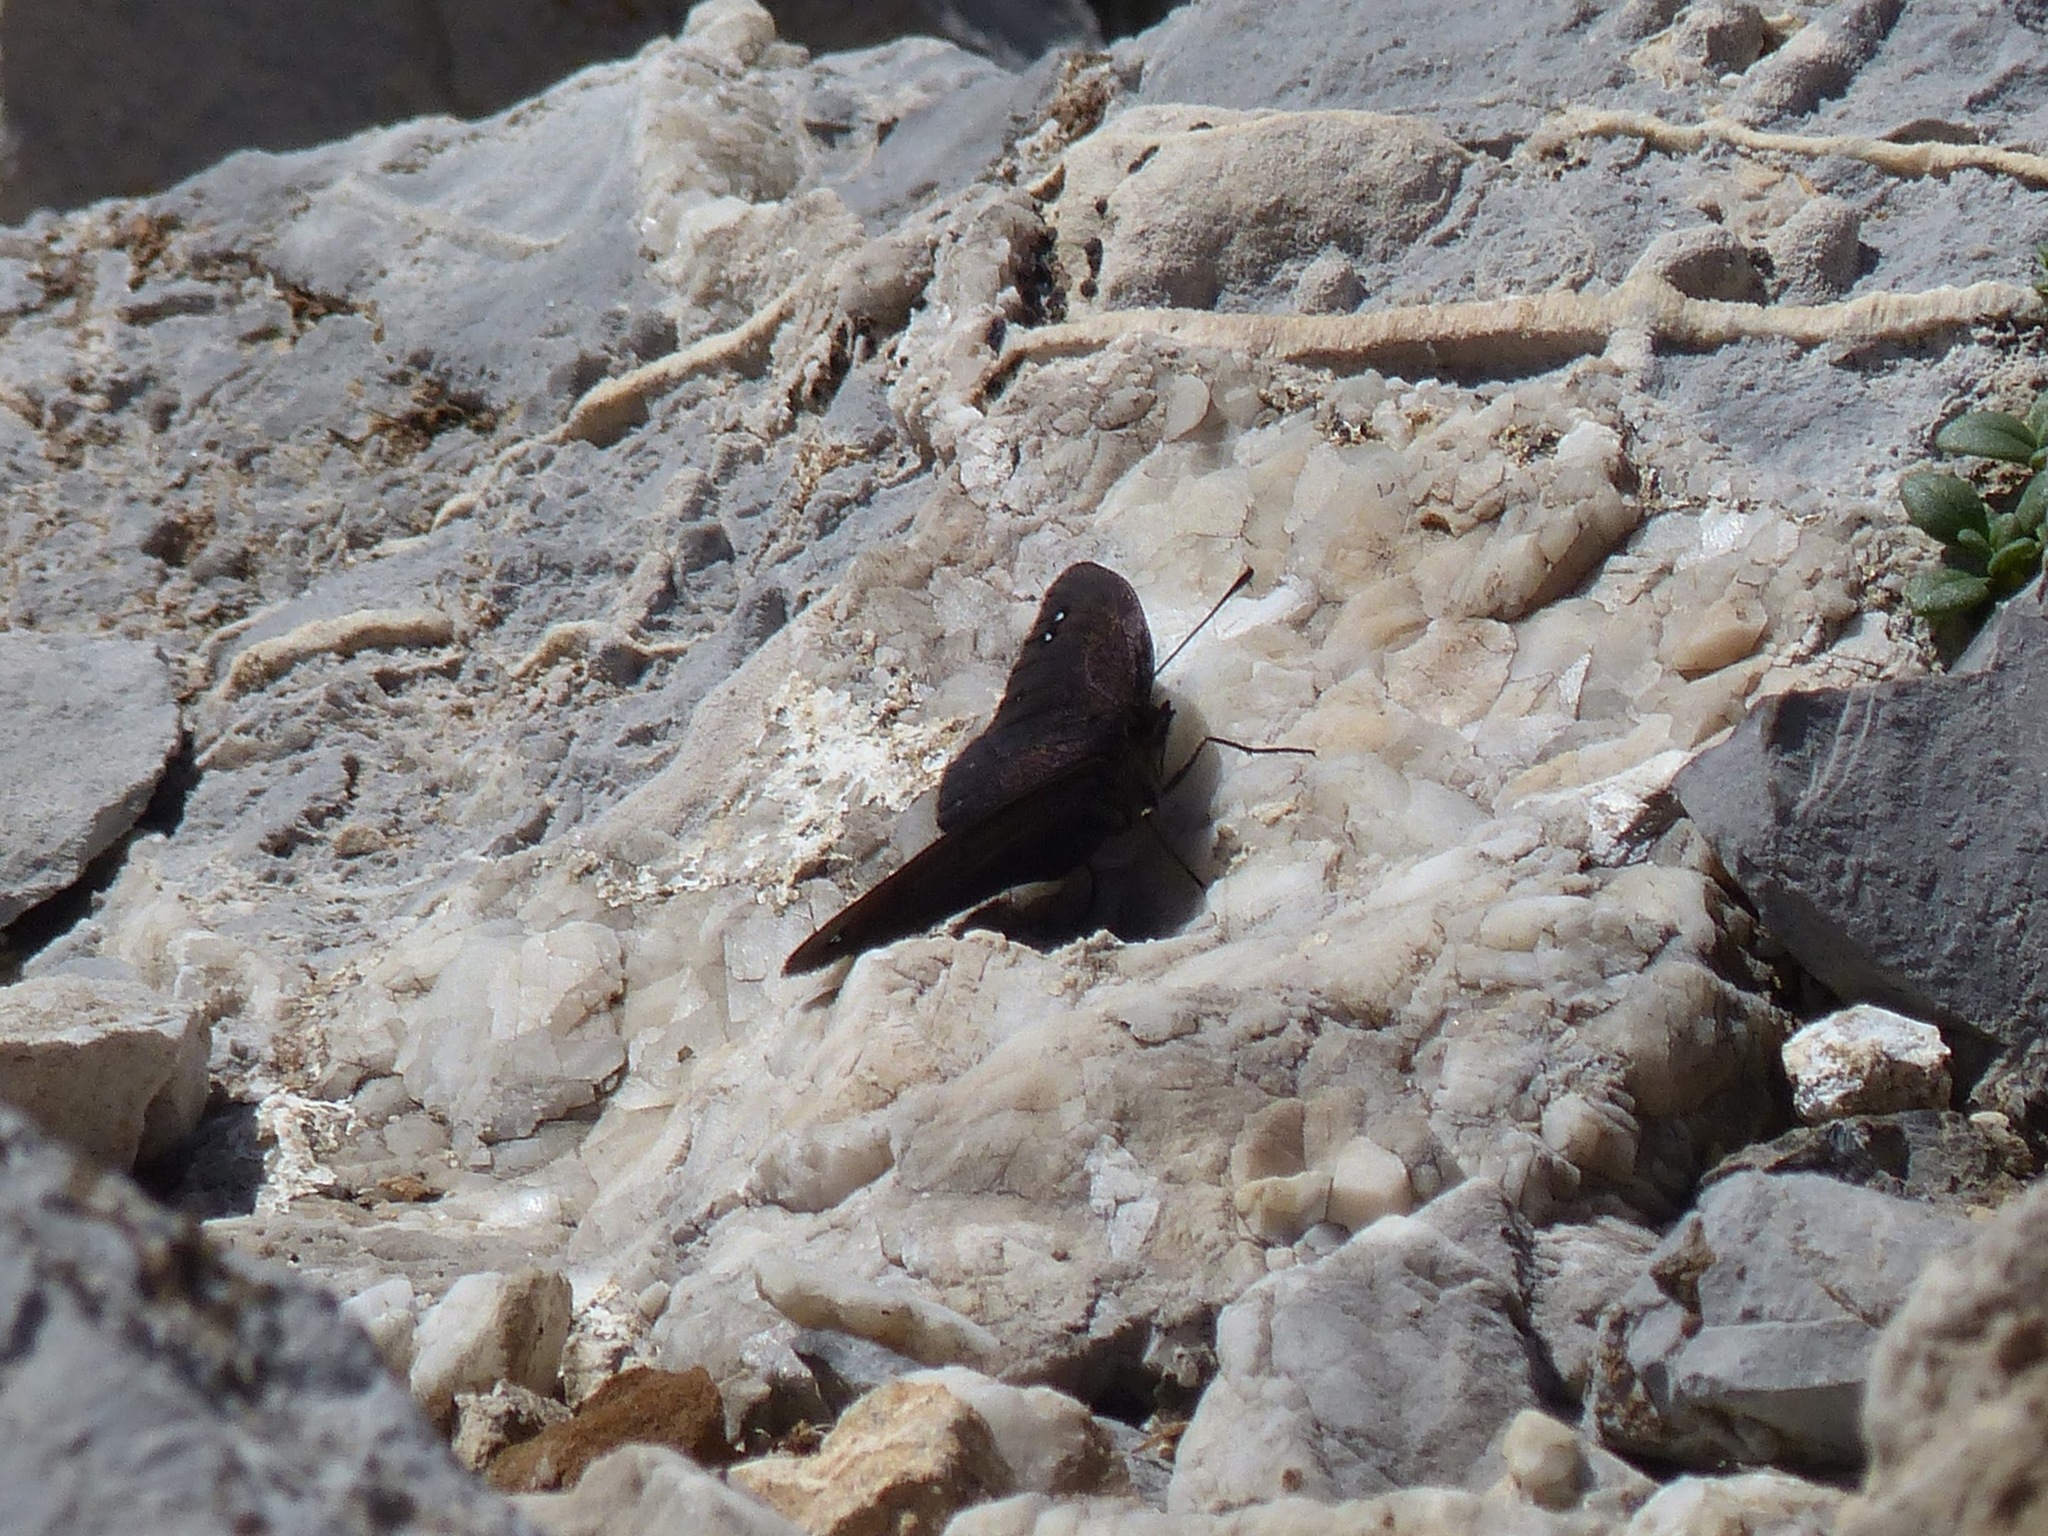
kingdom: Animalia
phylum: Arthropoda
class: Insecta
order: Lepidoptera
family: Nymphalidae
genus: Erebia
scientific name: Erebia lefebvrei
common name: Lefèbvre’s ringlet
